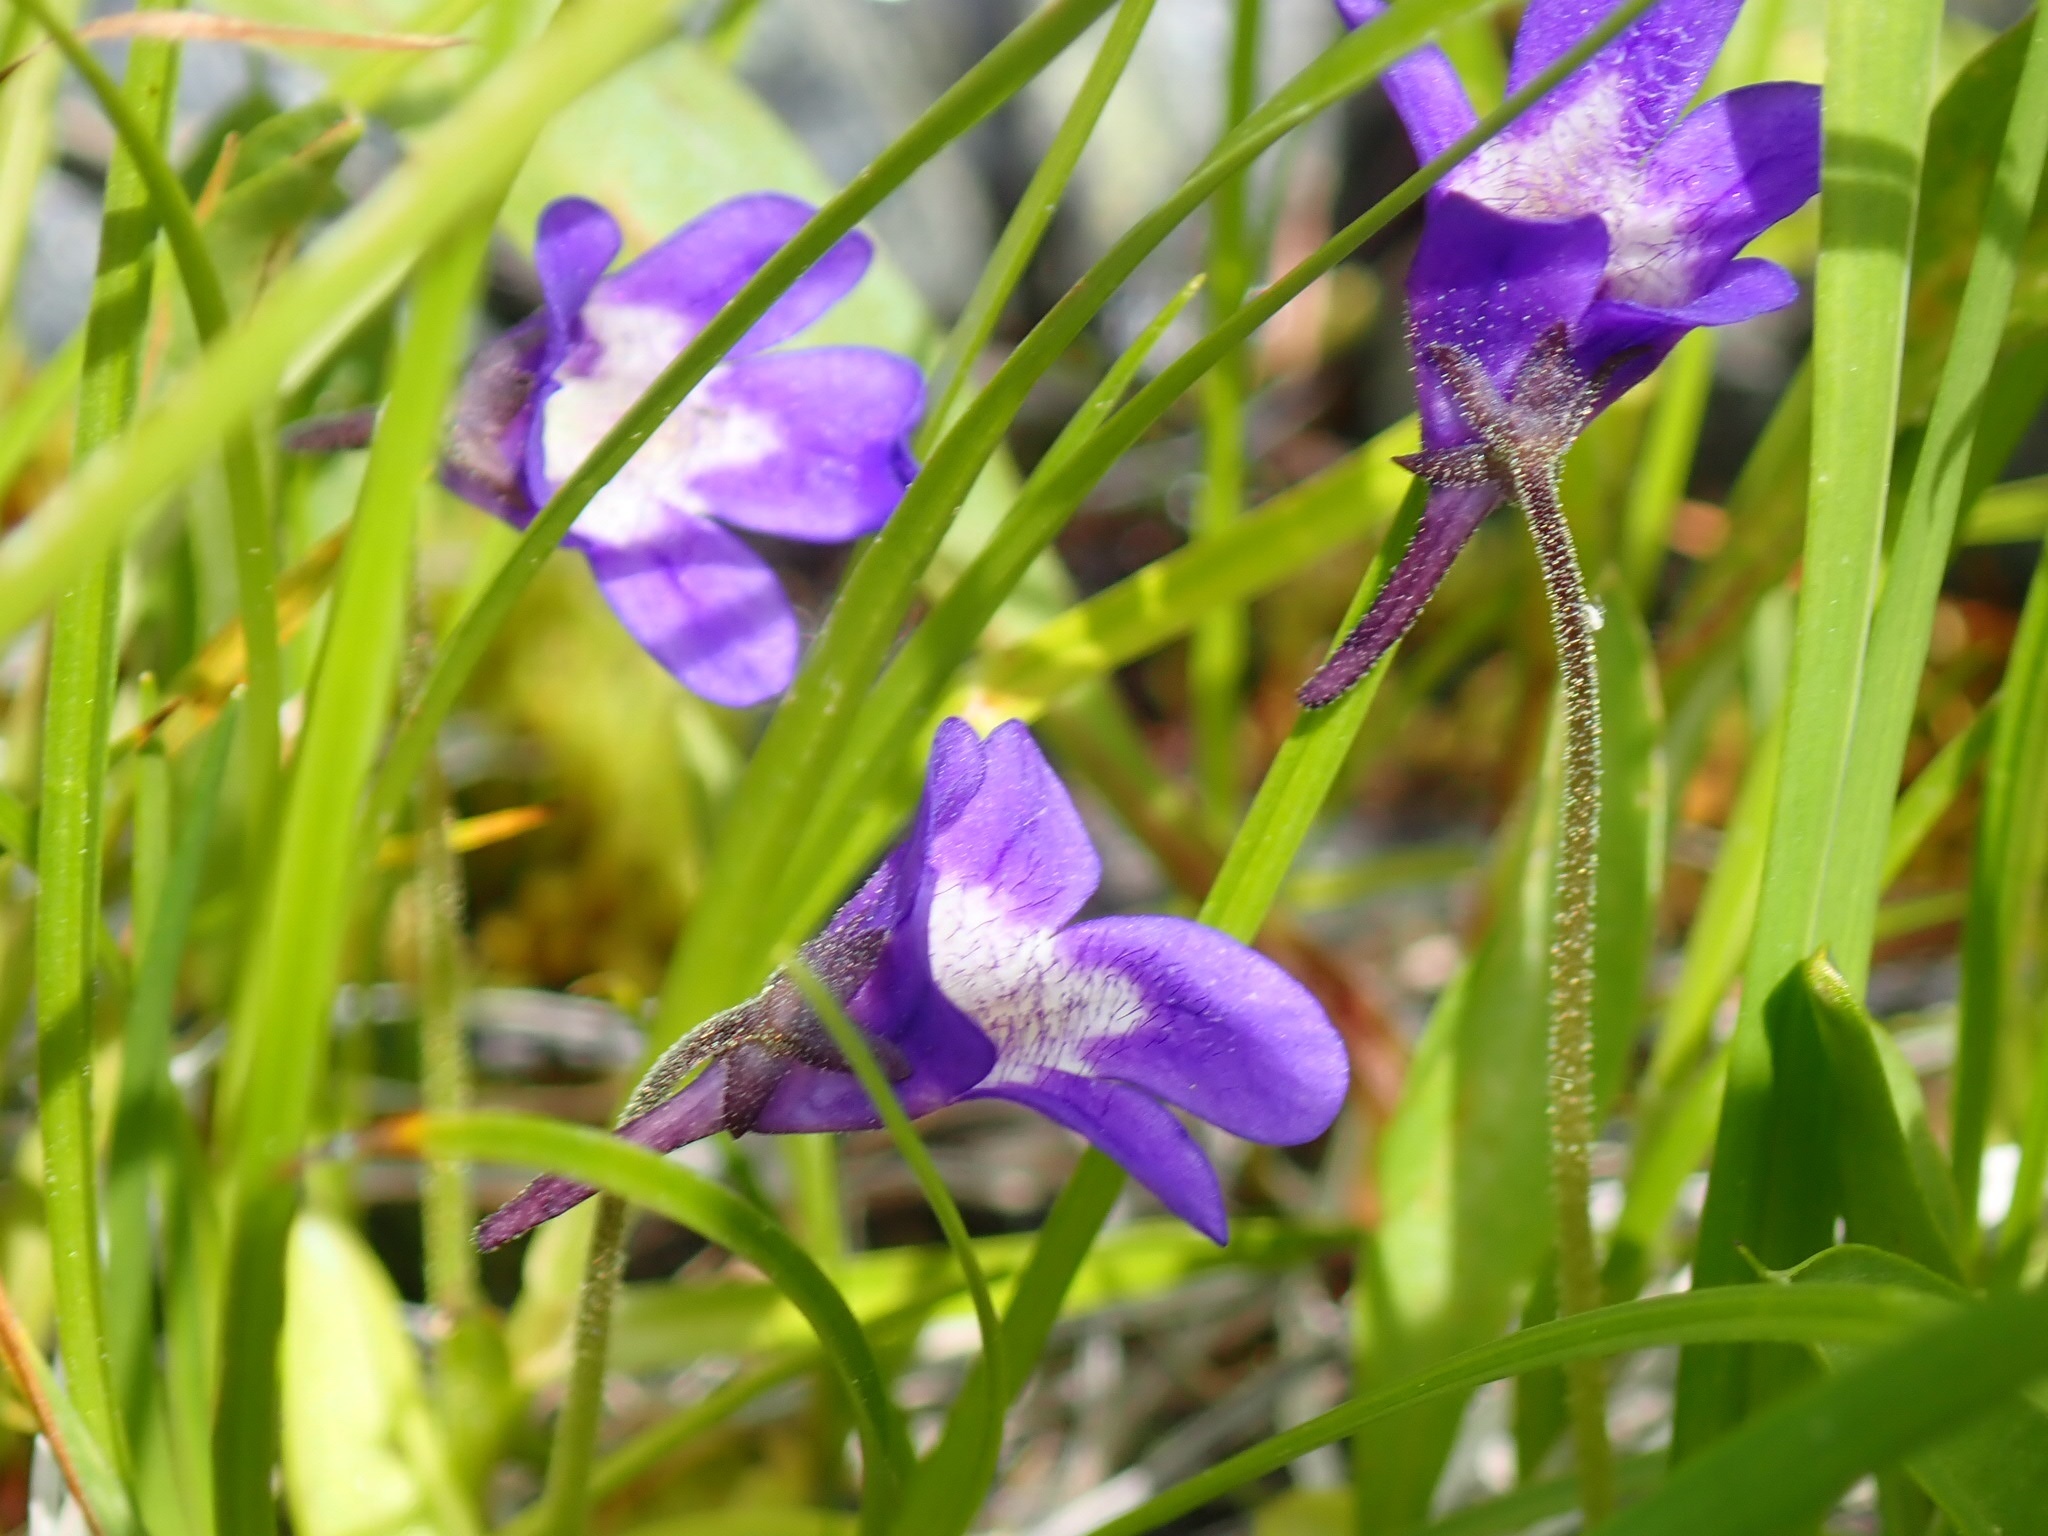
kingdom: Plantae
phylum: Tracheophyta
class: Magnoliopsida
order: Lamiales
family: Lentibulariaceae
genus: Pinguicula
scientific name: Pinguicula macroceras
